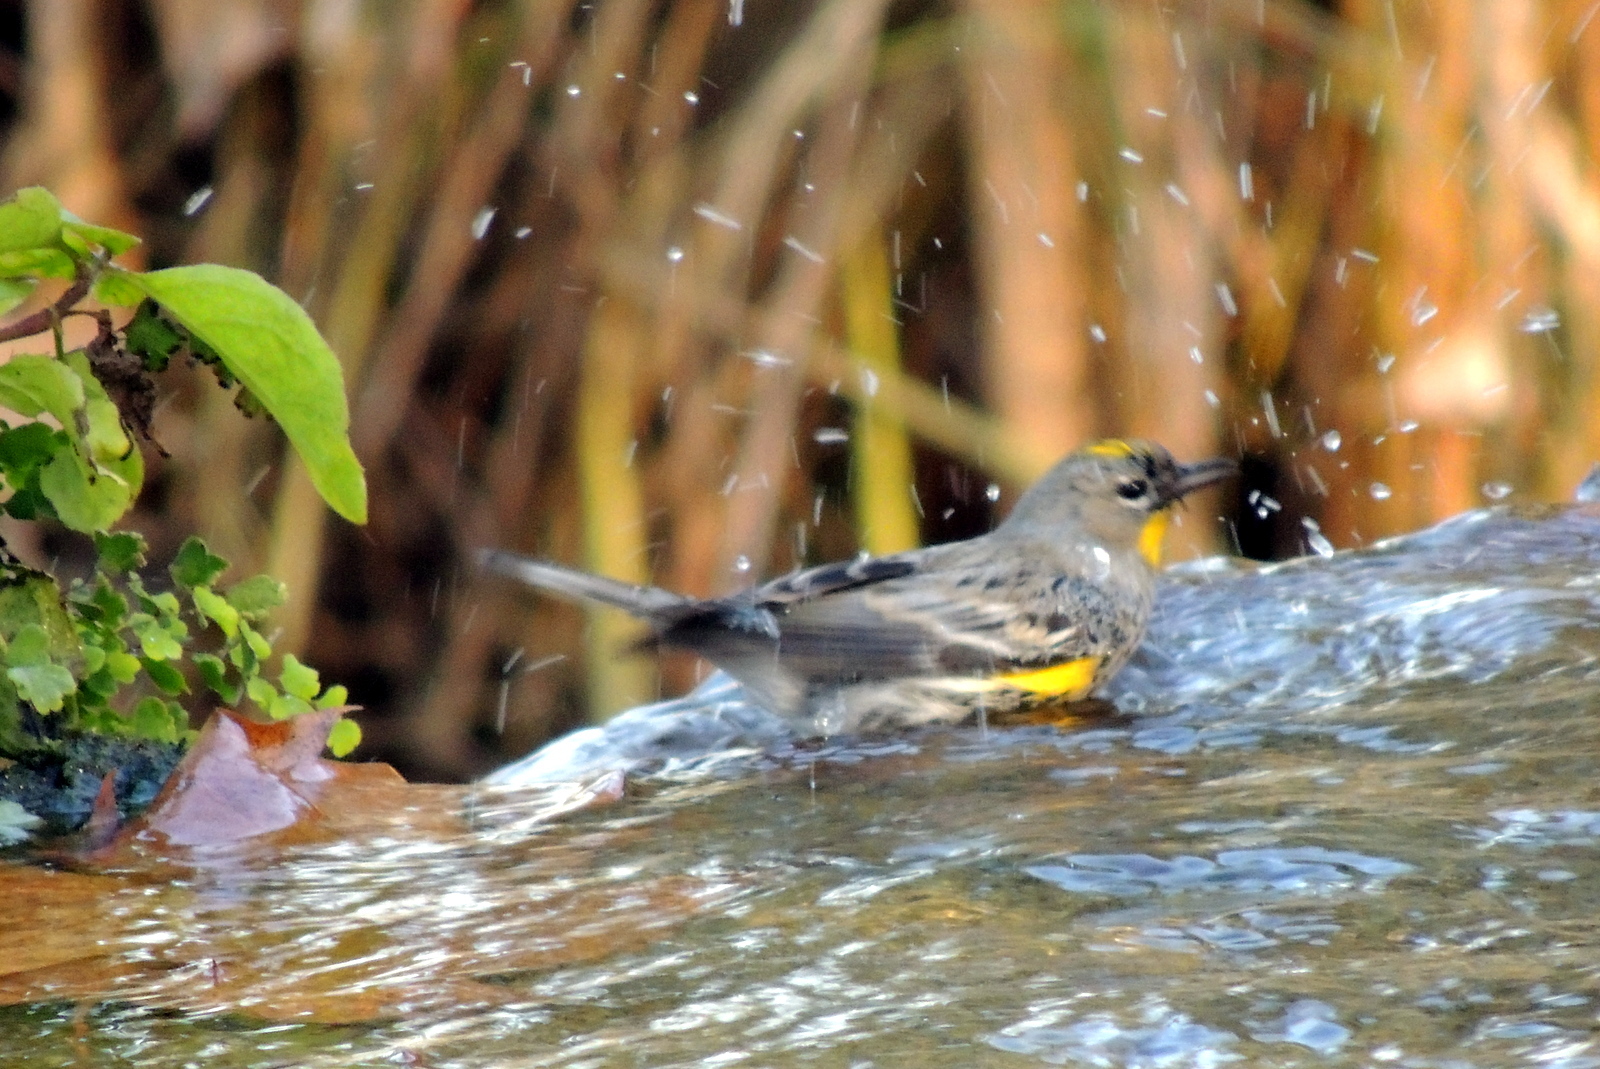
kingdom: Animalia
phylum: Chordata
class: Aves
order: Passeriformes
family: Parulidae
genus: Setophaga
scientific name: Setophaga coronata
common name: Myrtle warbler
